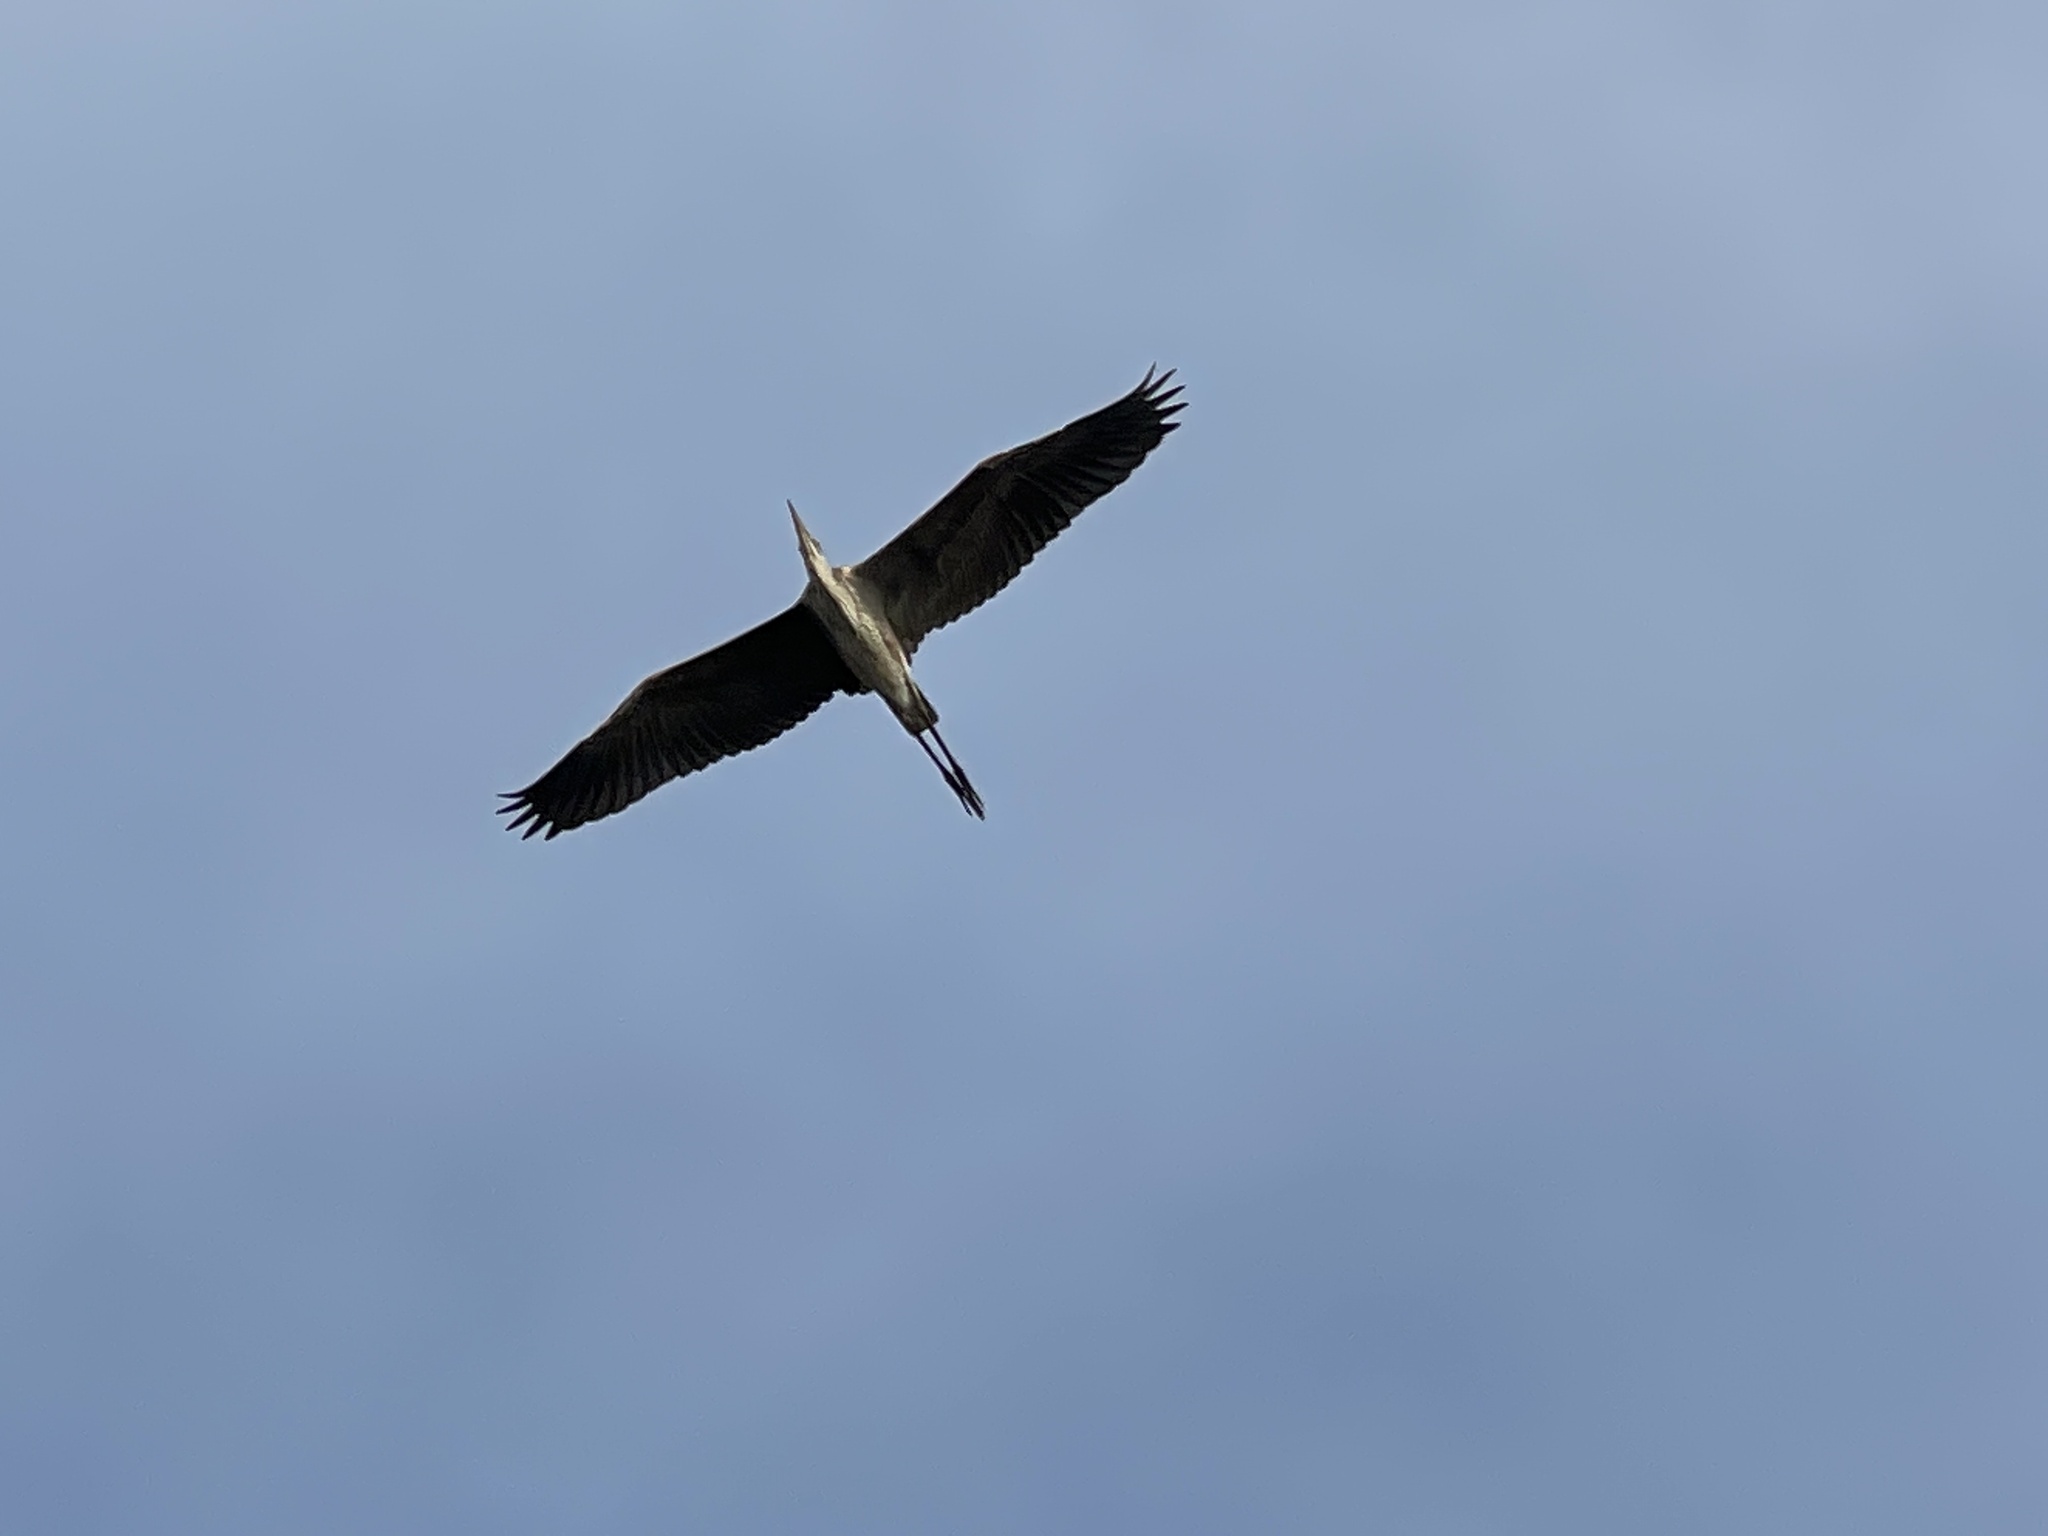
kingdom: Animalia
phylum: Chordata
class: Aves
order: Pelecaniformes
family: Ardeidae
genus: Ardea
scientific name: Ardea herodias
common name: Great blue heron
